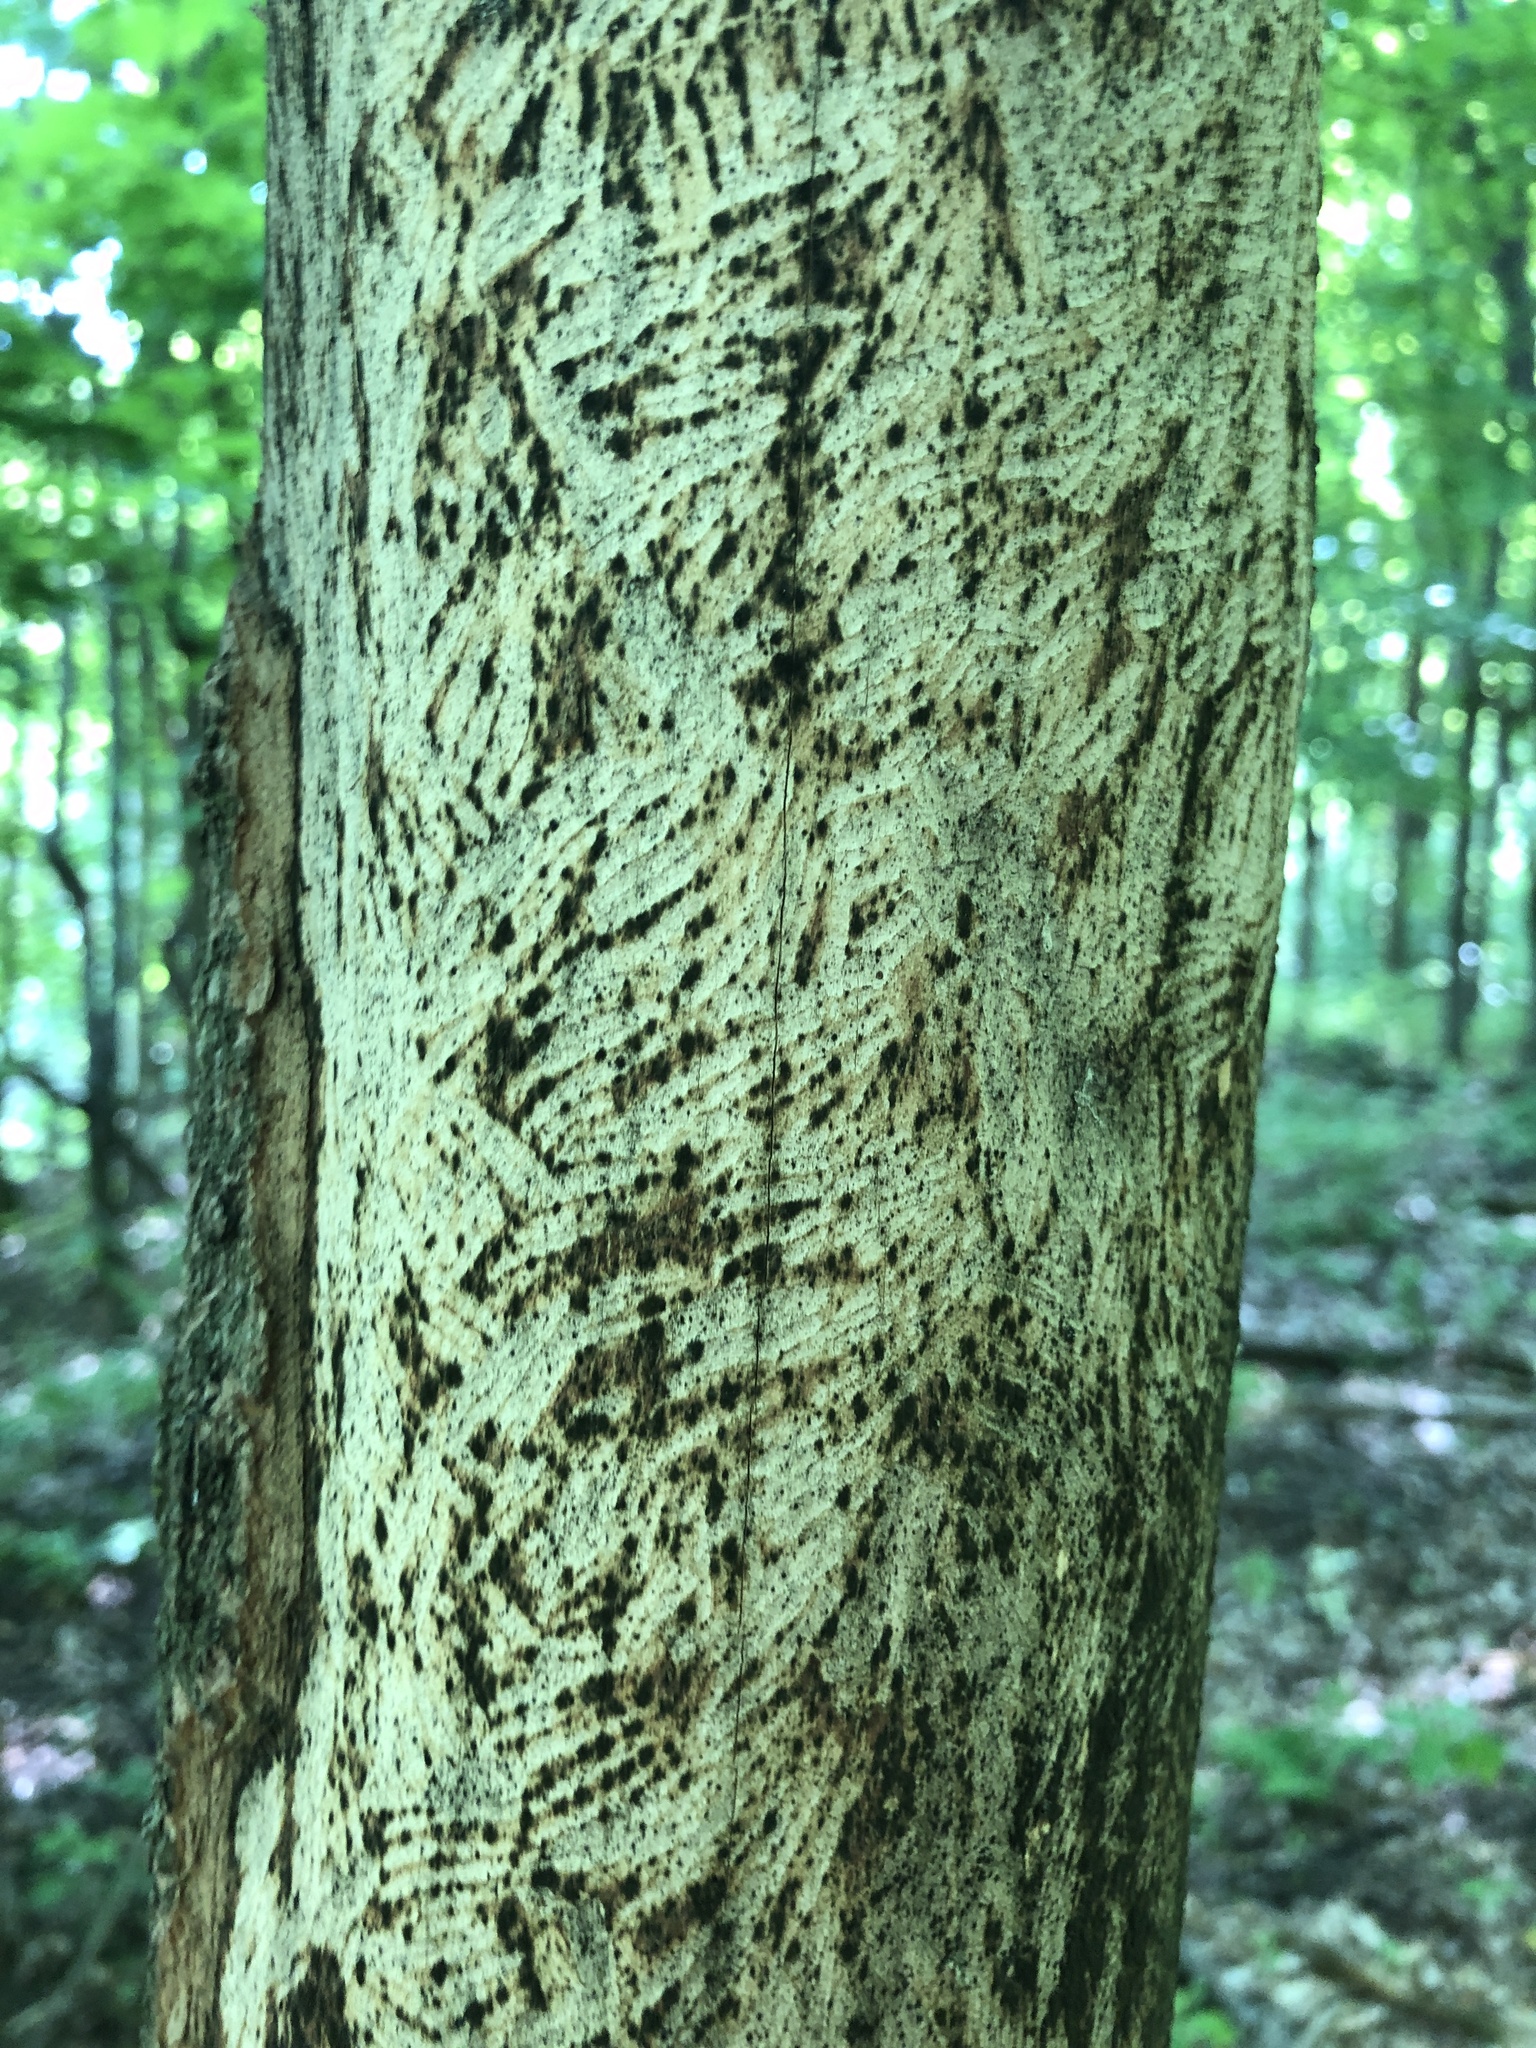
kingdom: Animalia
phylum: Chordata
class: Mammalia
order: Rodentia
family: Erethizontidae
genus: Erethizon
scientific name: Erethizon dorsatus
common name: North american porcupine
